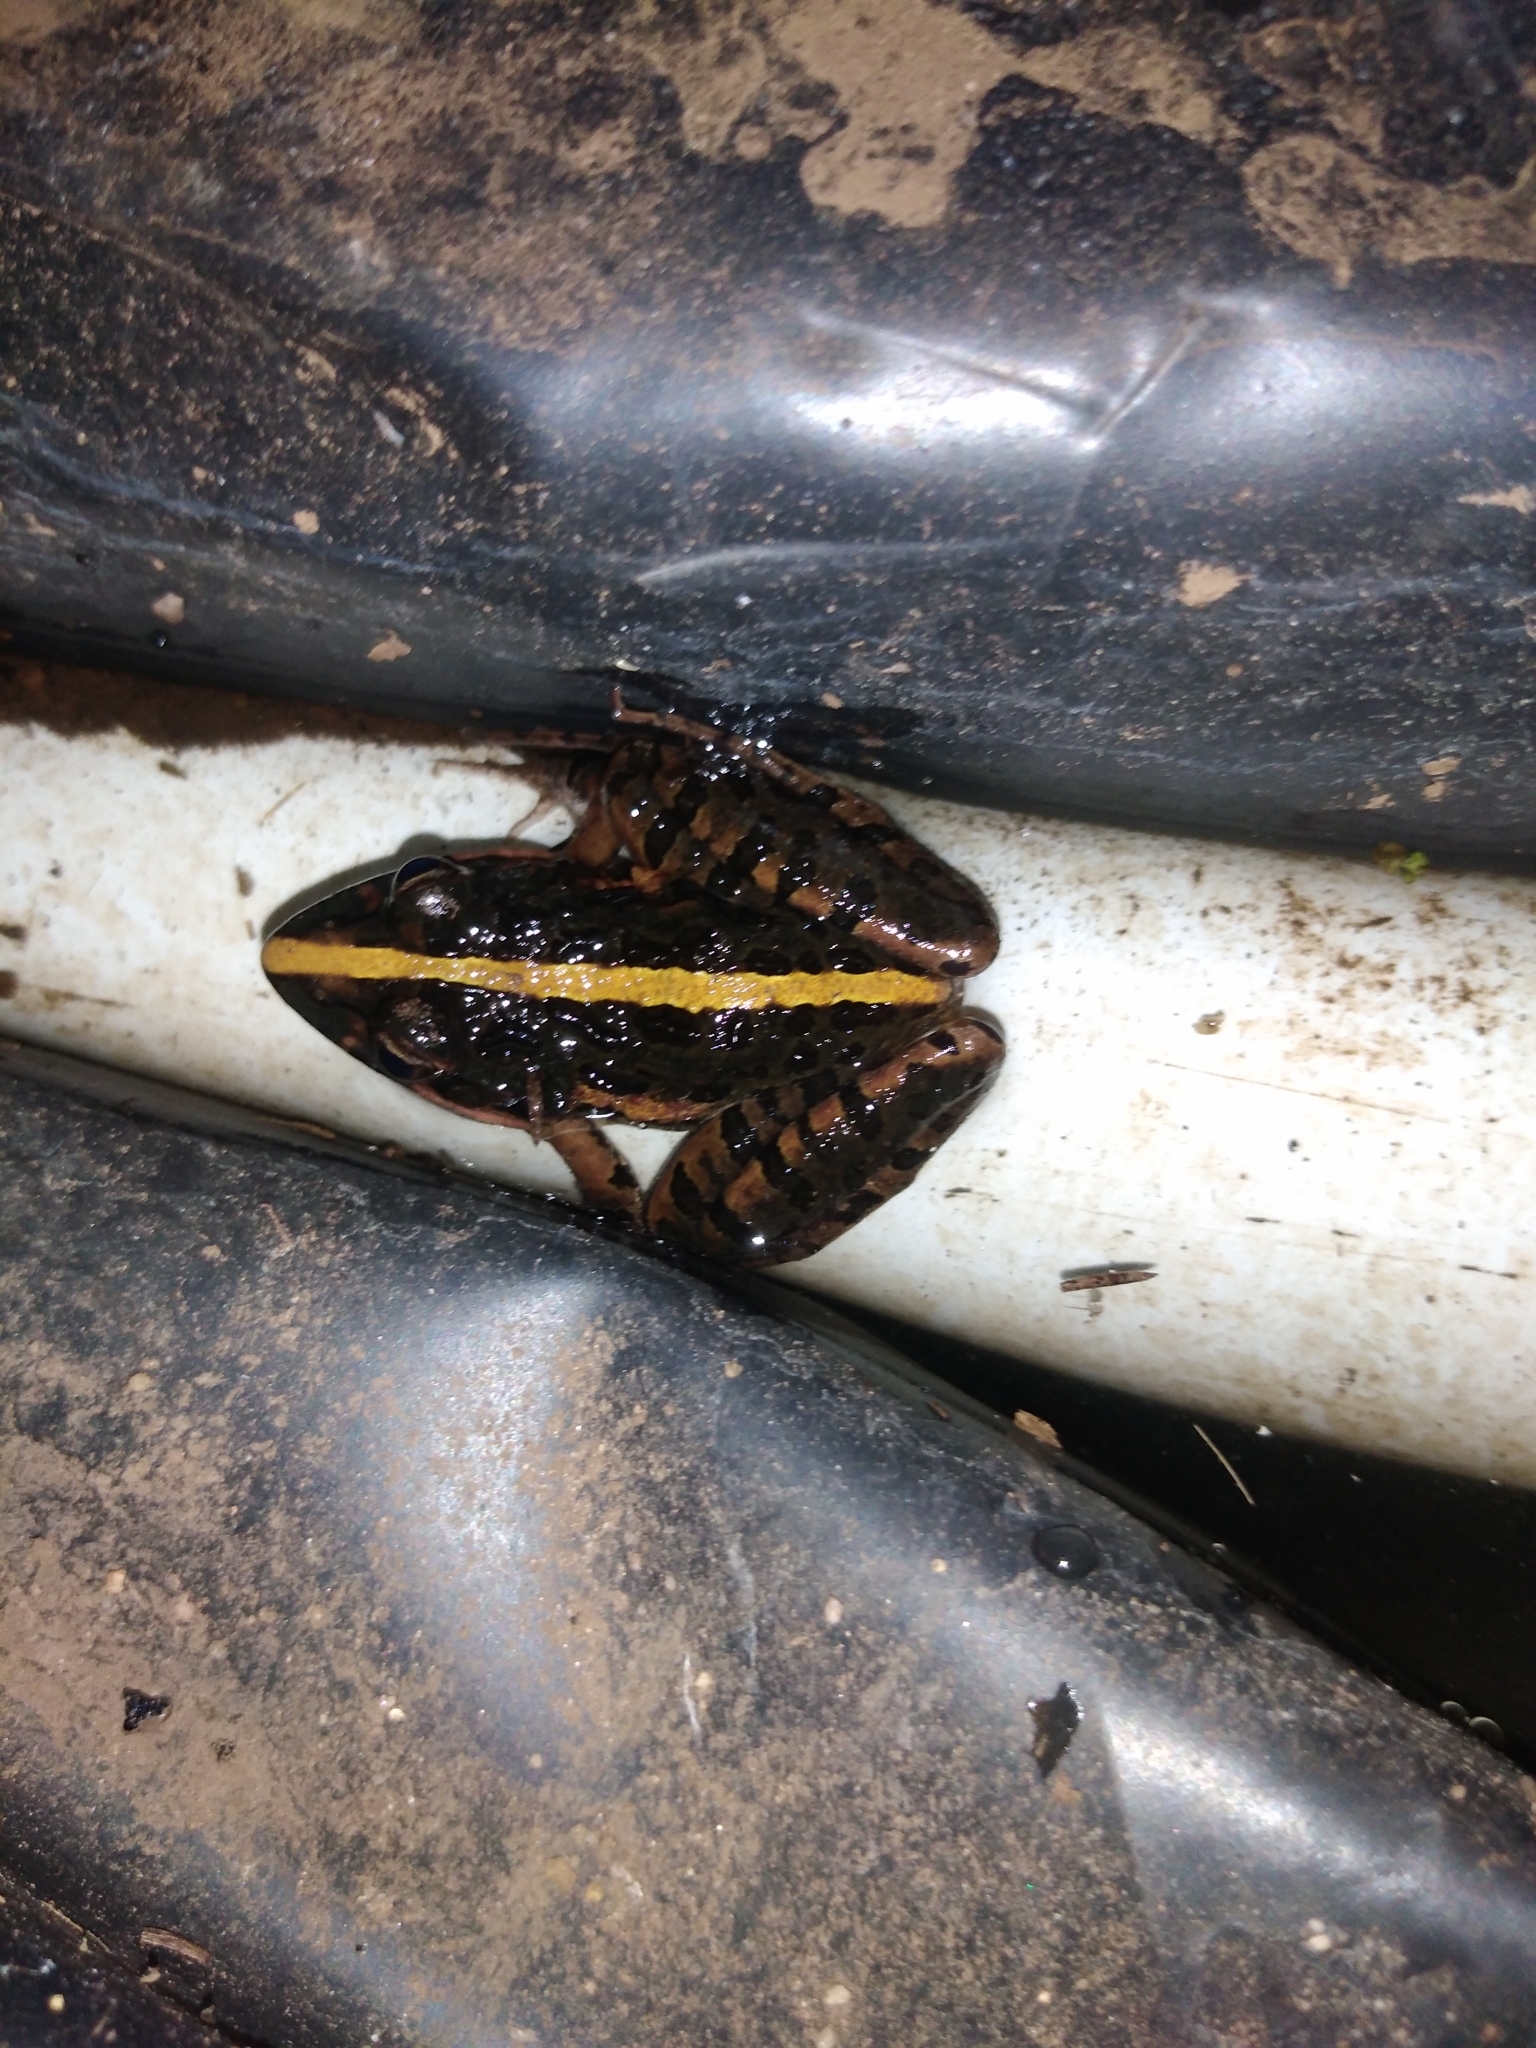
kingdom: Animalia
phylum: Chordata
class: Amphibia
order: Anura
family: Pyxicephalidae
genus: Strongylopus
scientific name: Strongylopus grayii
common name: Gray's stream frog
